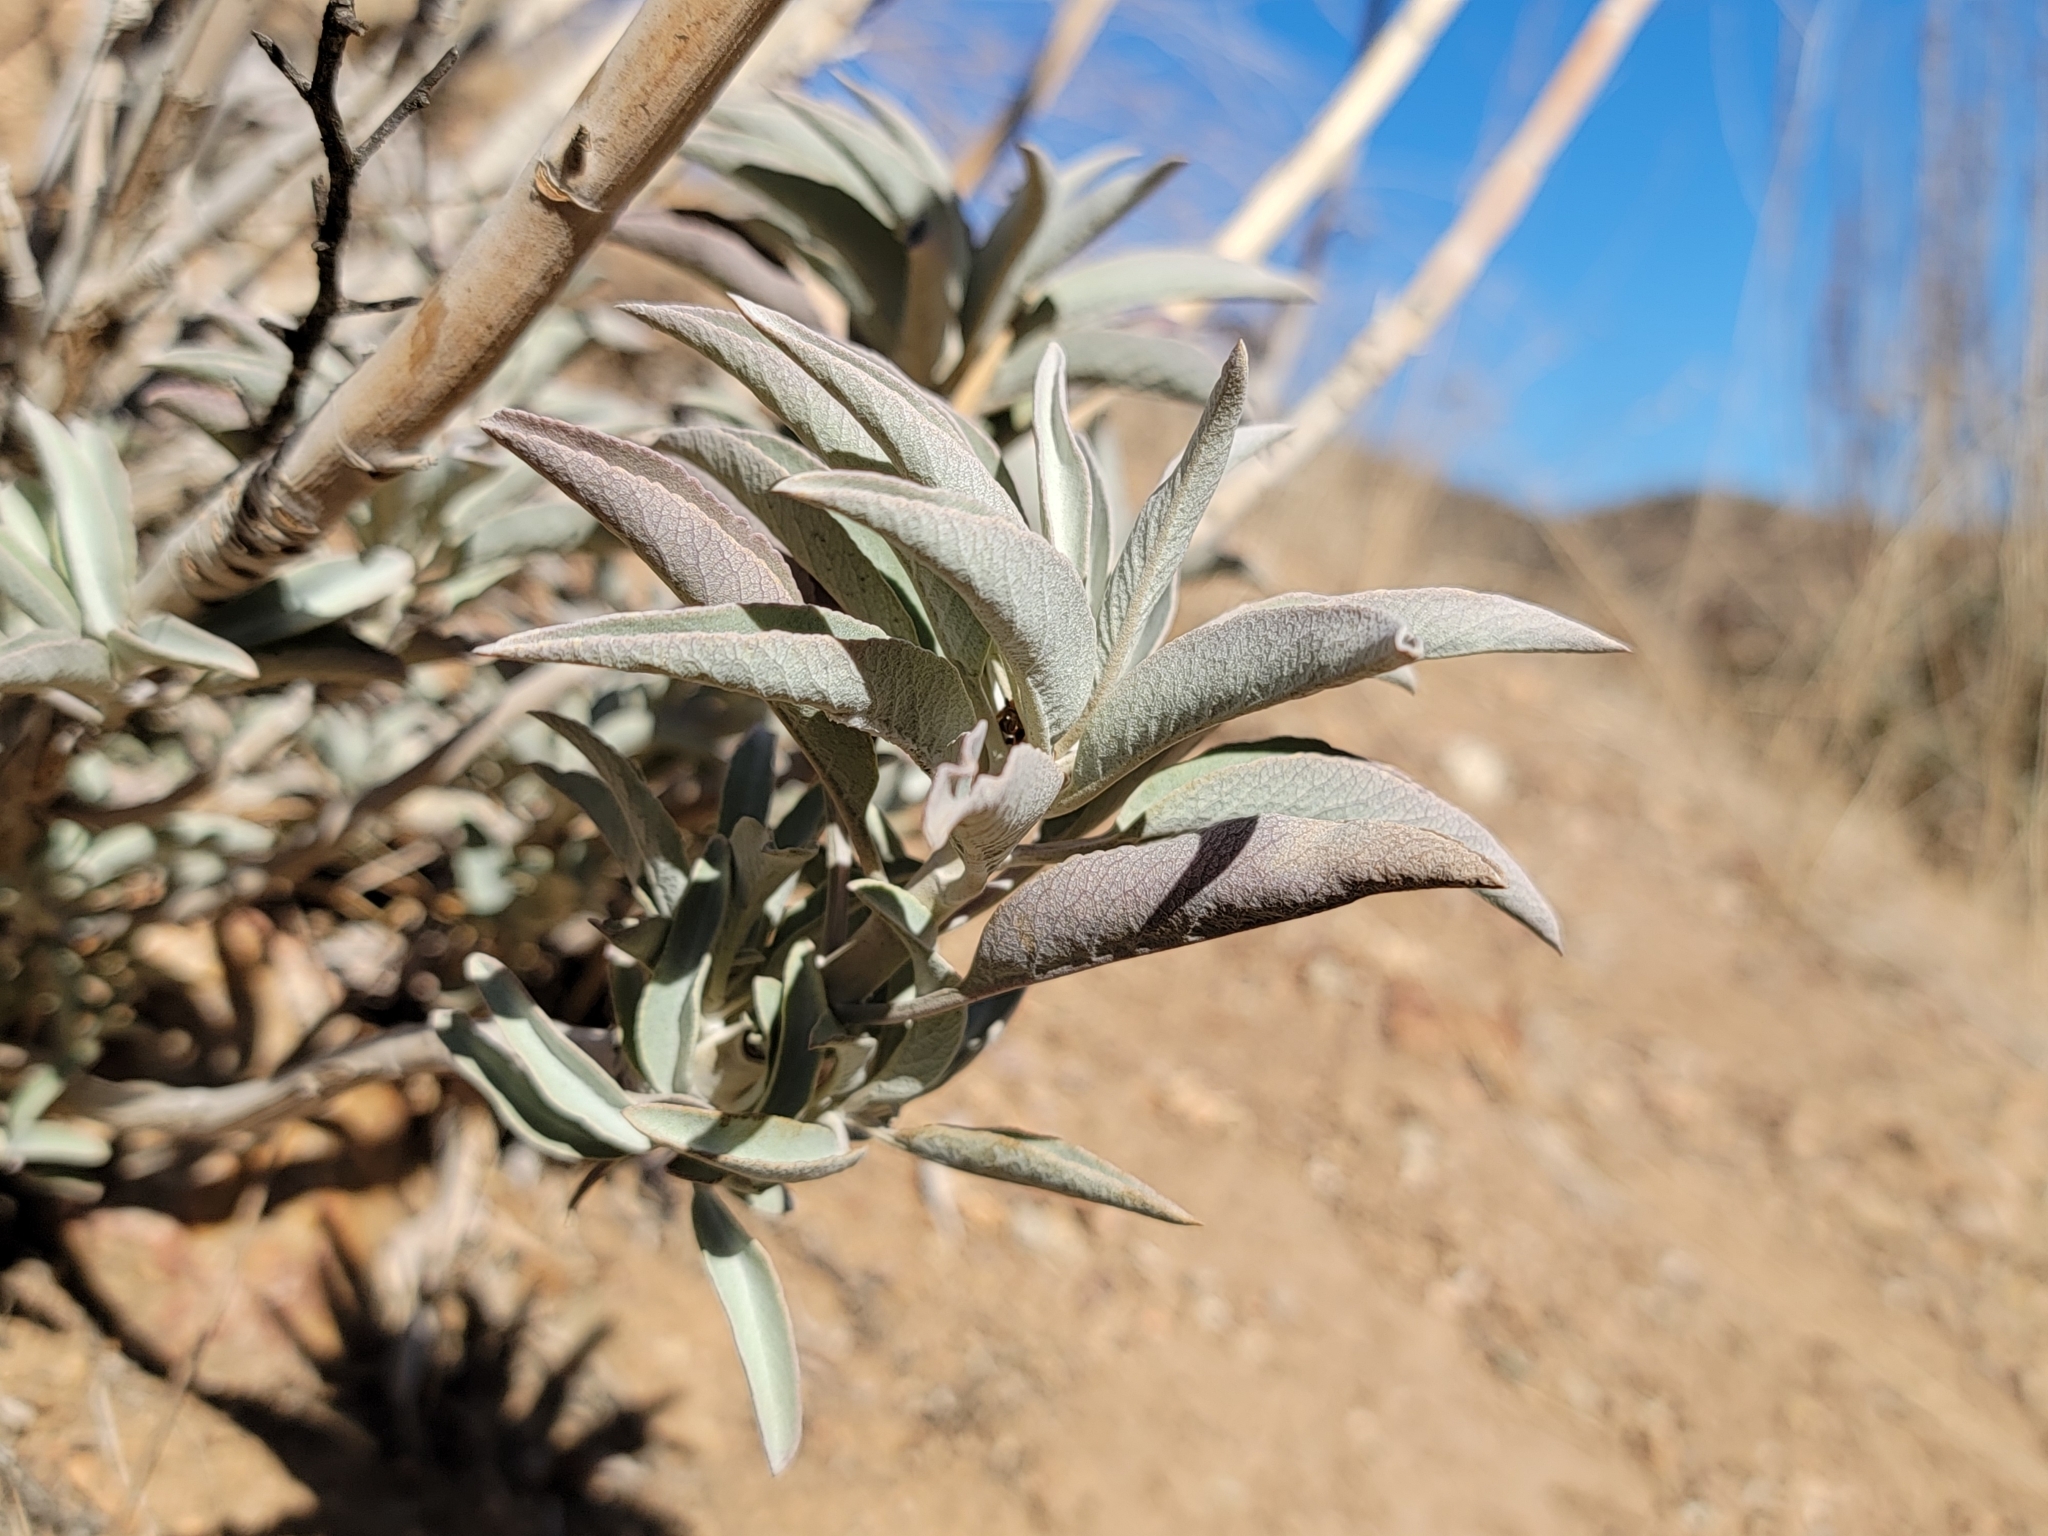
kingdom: Plantae
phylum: Tracheophyta
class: Magnoliopsida
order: Lamiales
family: Lamiaceae
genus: Salvia
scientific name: Salvia apiana
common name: White sage
